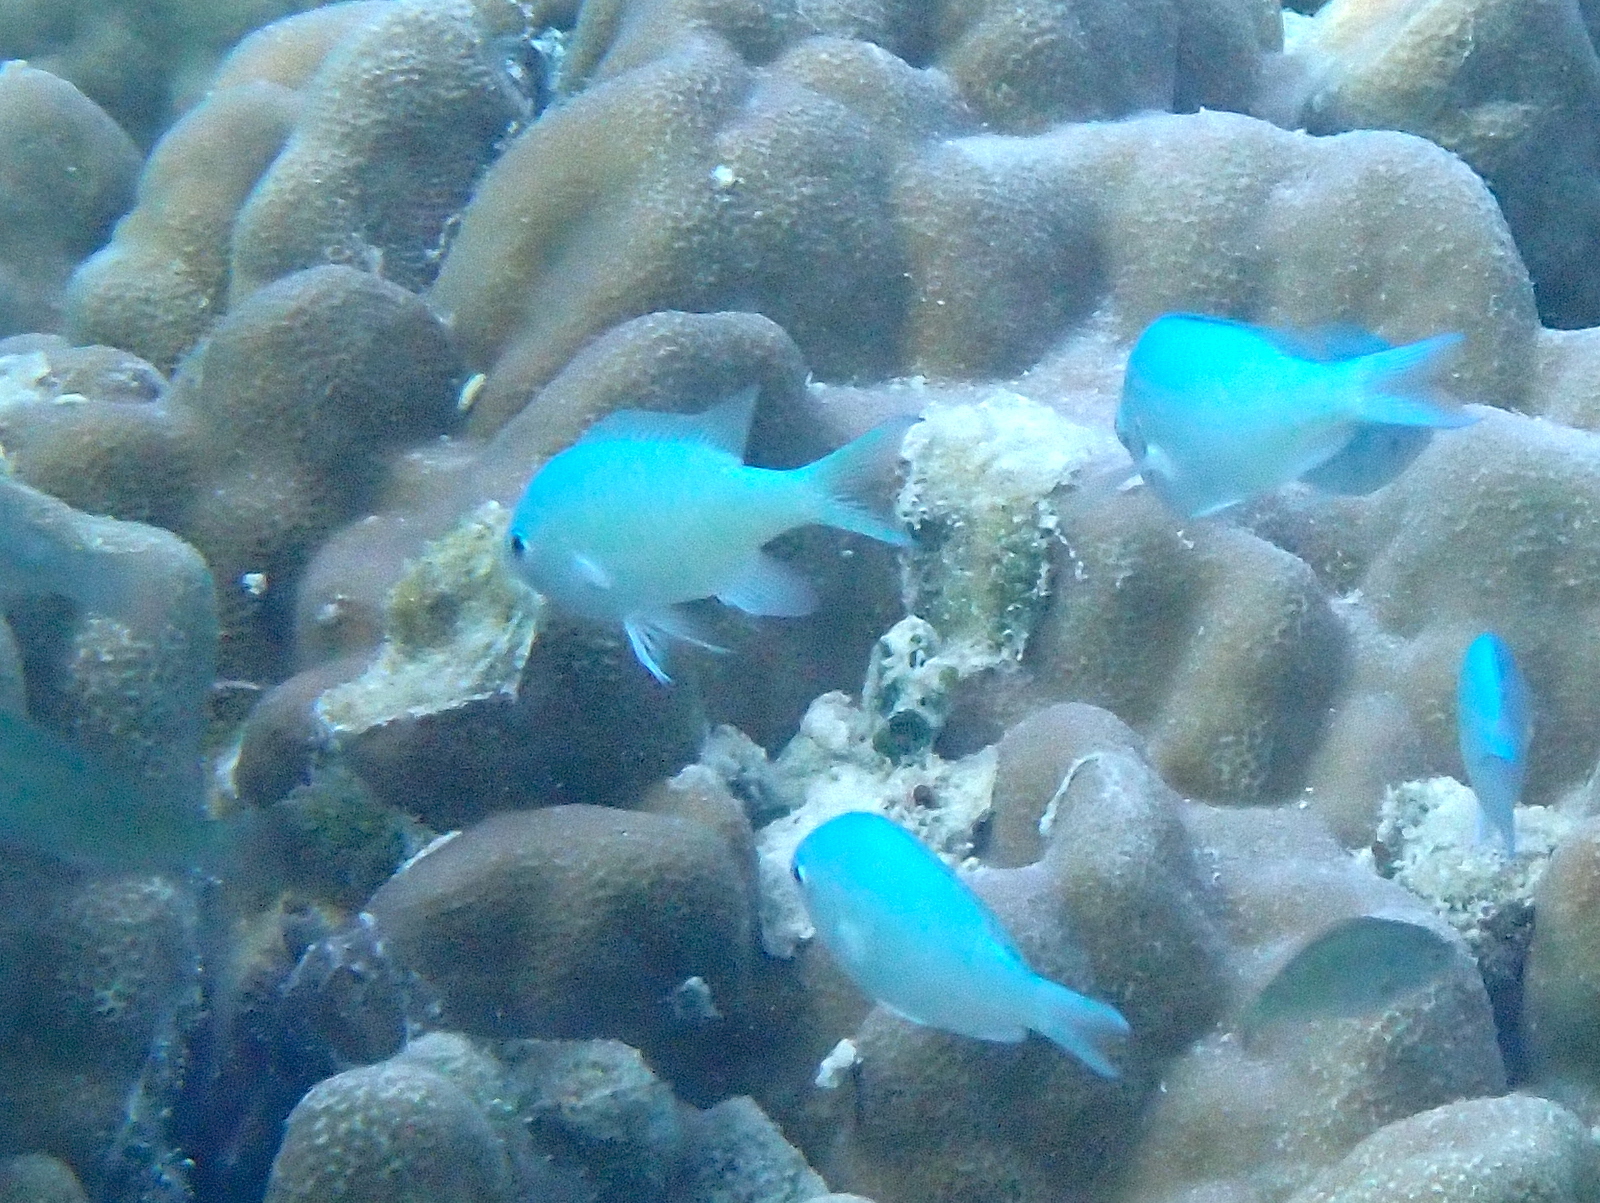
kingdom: Animalia
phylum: Chordata
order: Perciformes
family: Pomacentridae
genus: Chromis
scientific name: Chromis viridis
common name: Blue-green chromis
